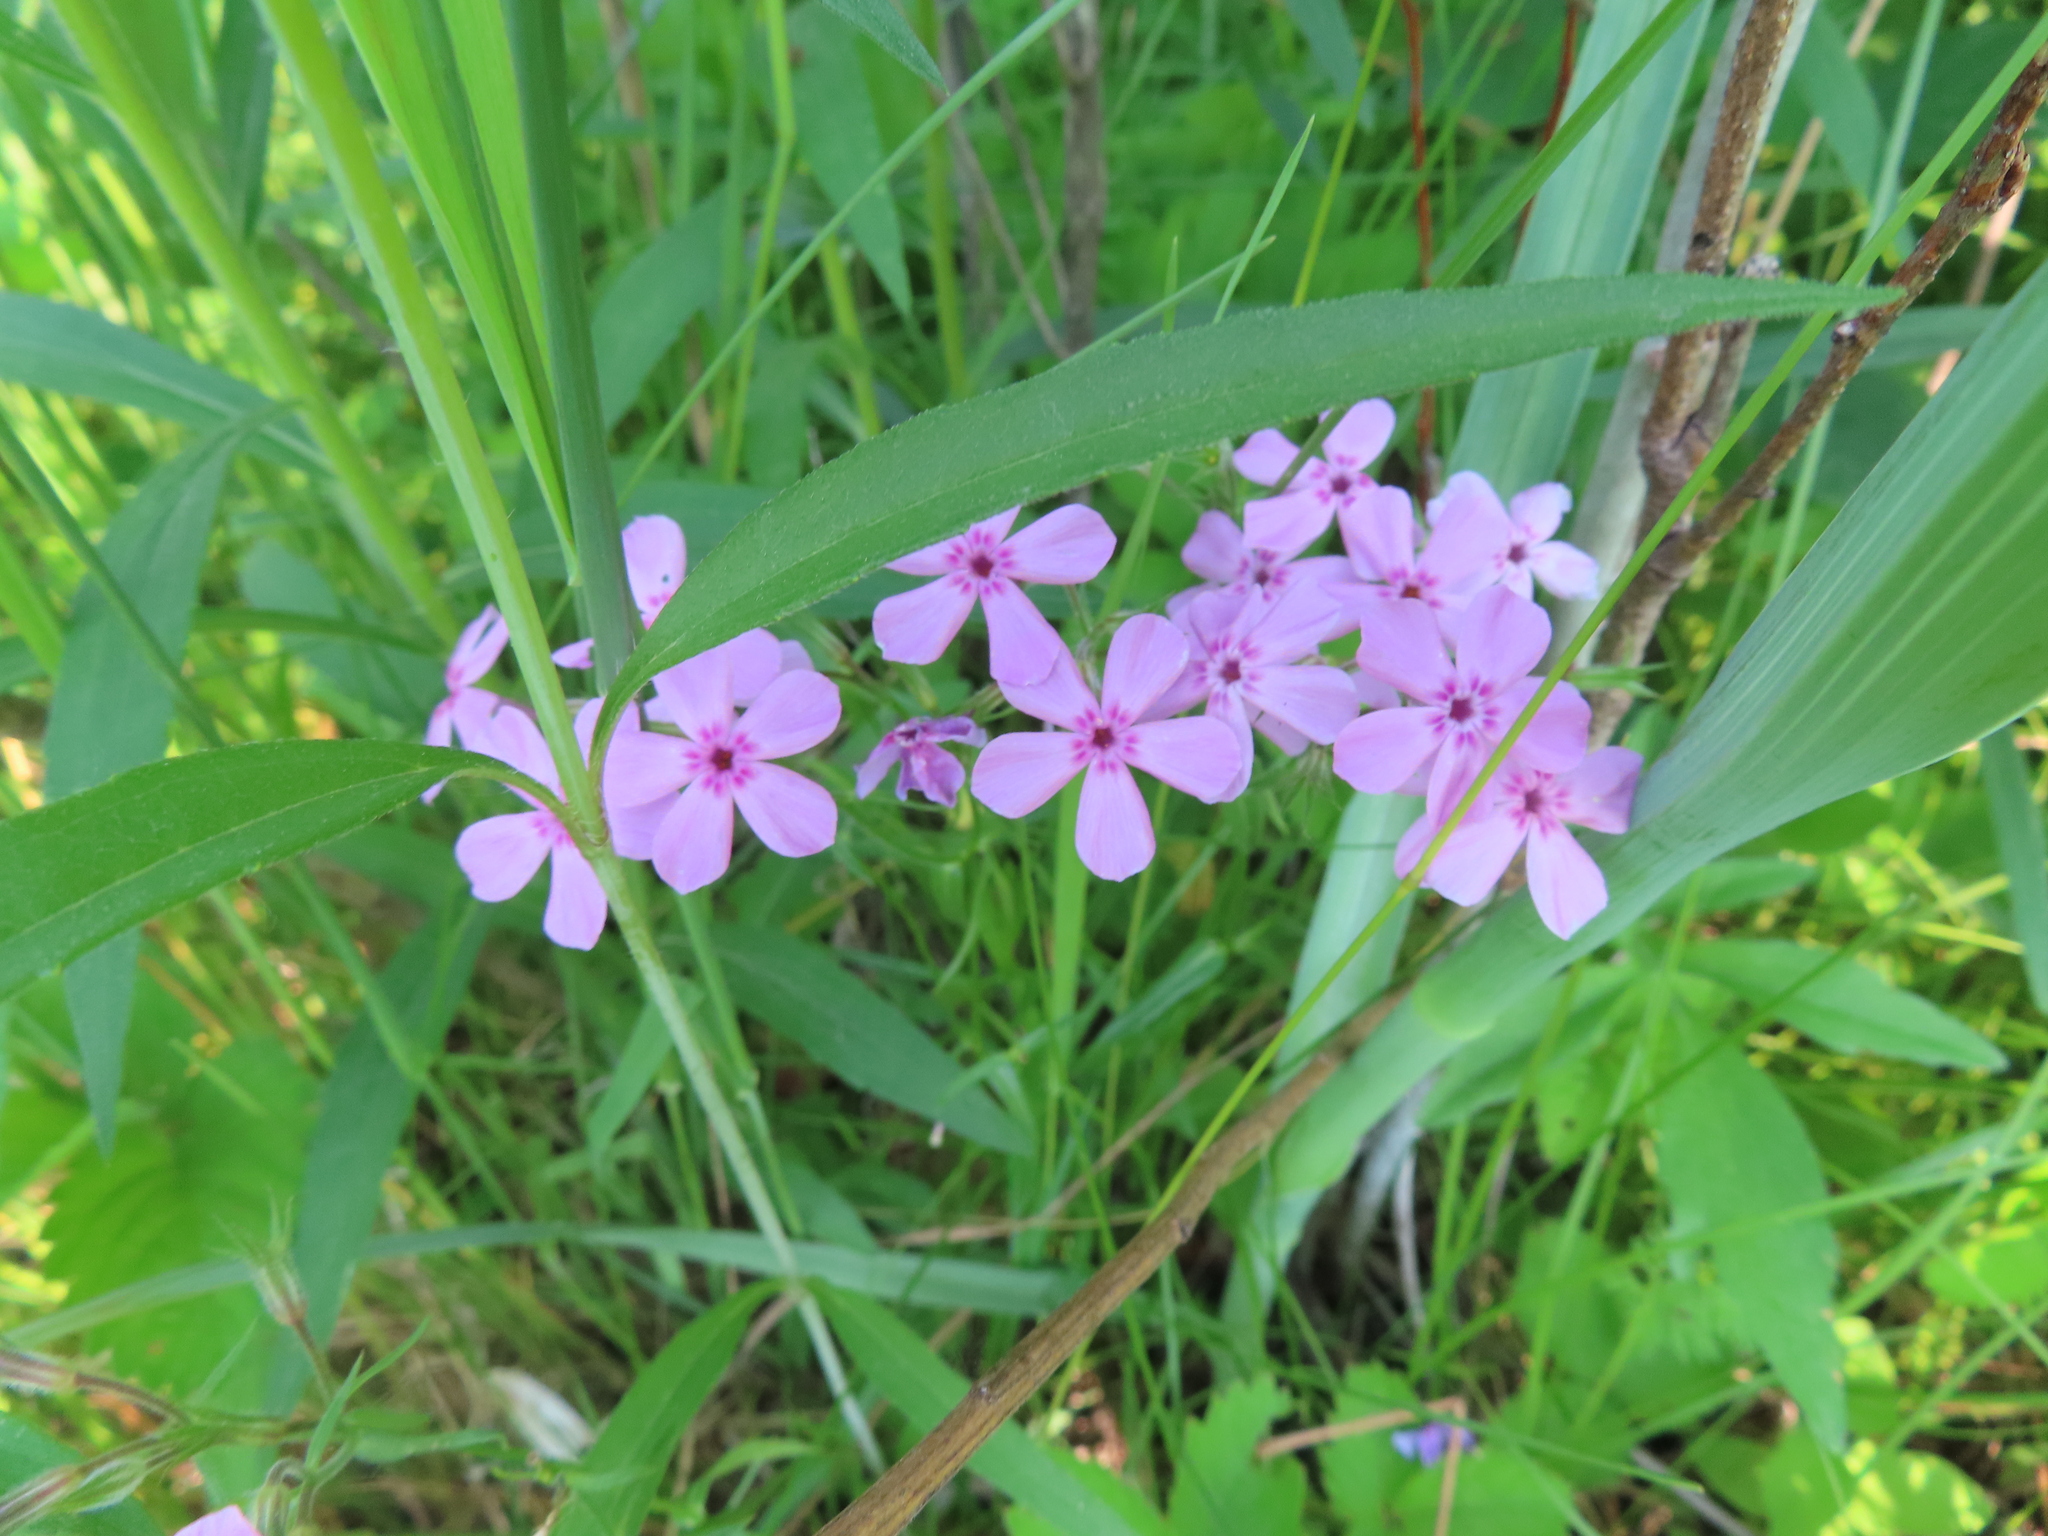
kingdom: Plantae
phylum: Tracheophyta
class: Magnoliopsida
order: Ericales
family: Polemoniaceae
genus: Phlox
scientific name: Phlox pilosa
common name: Prairie phlox
